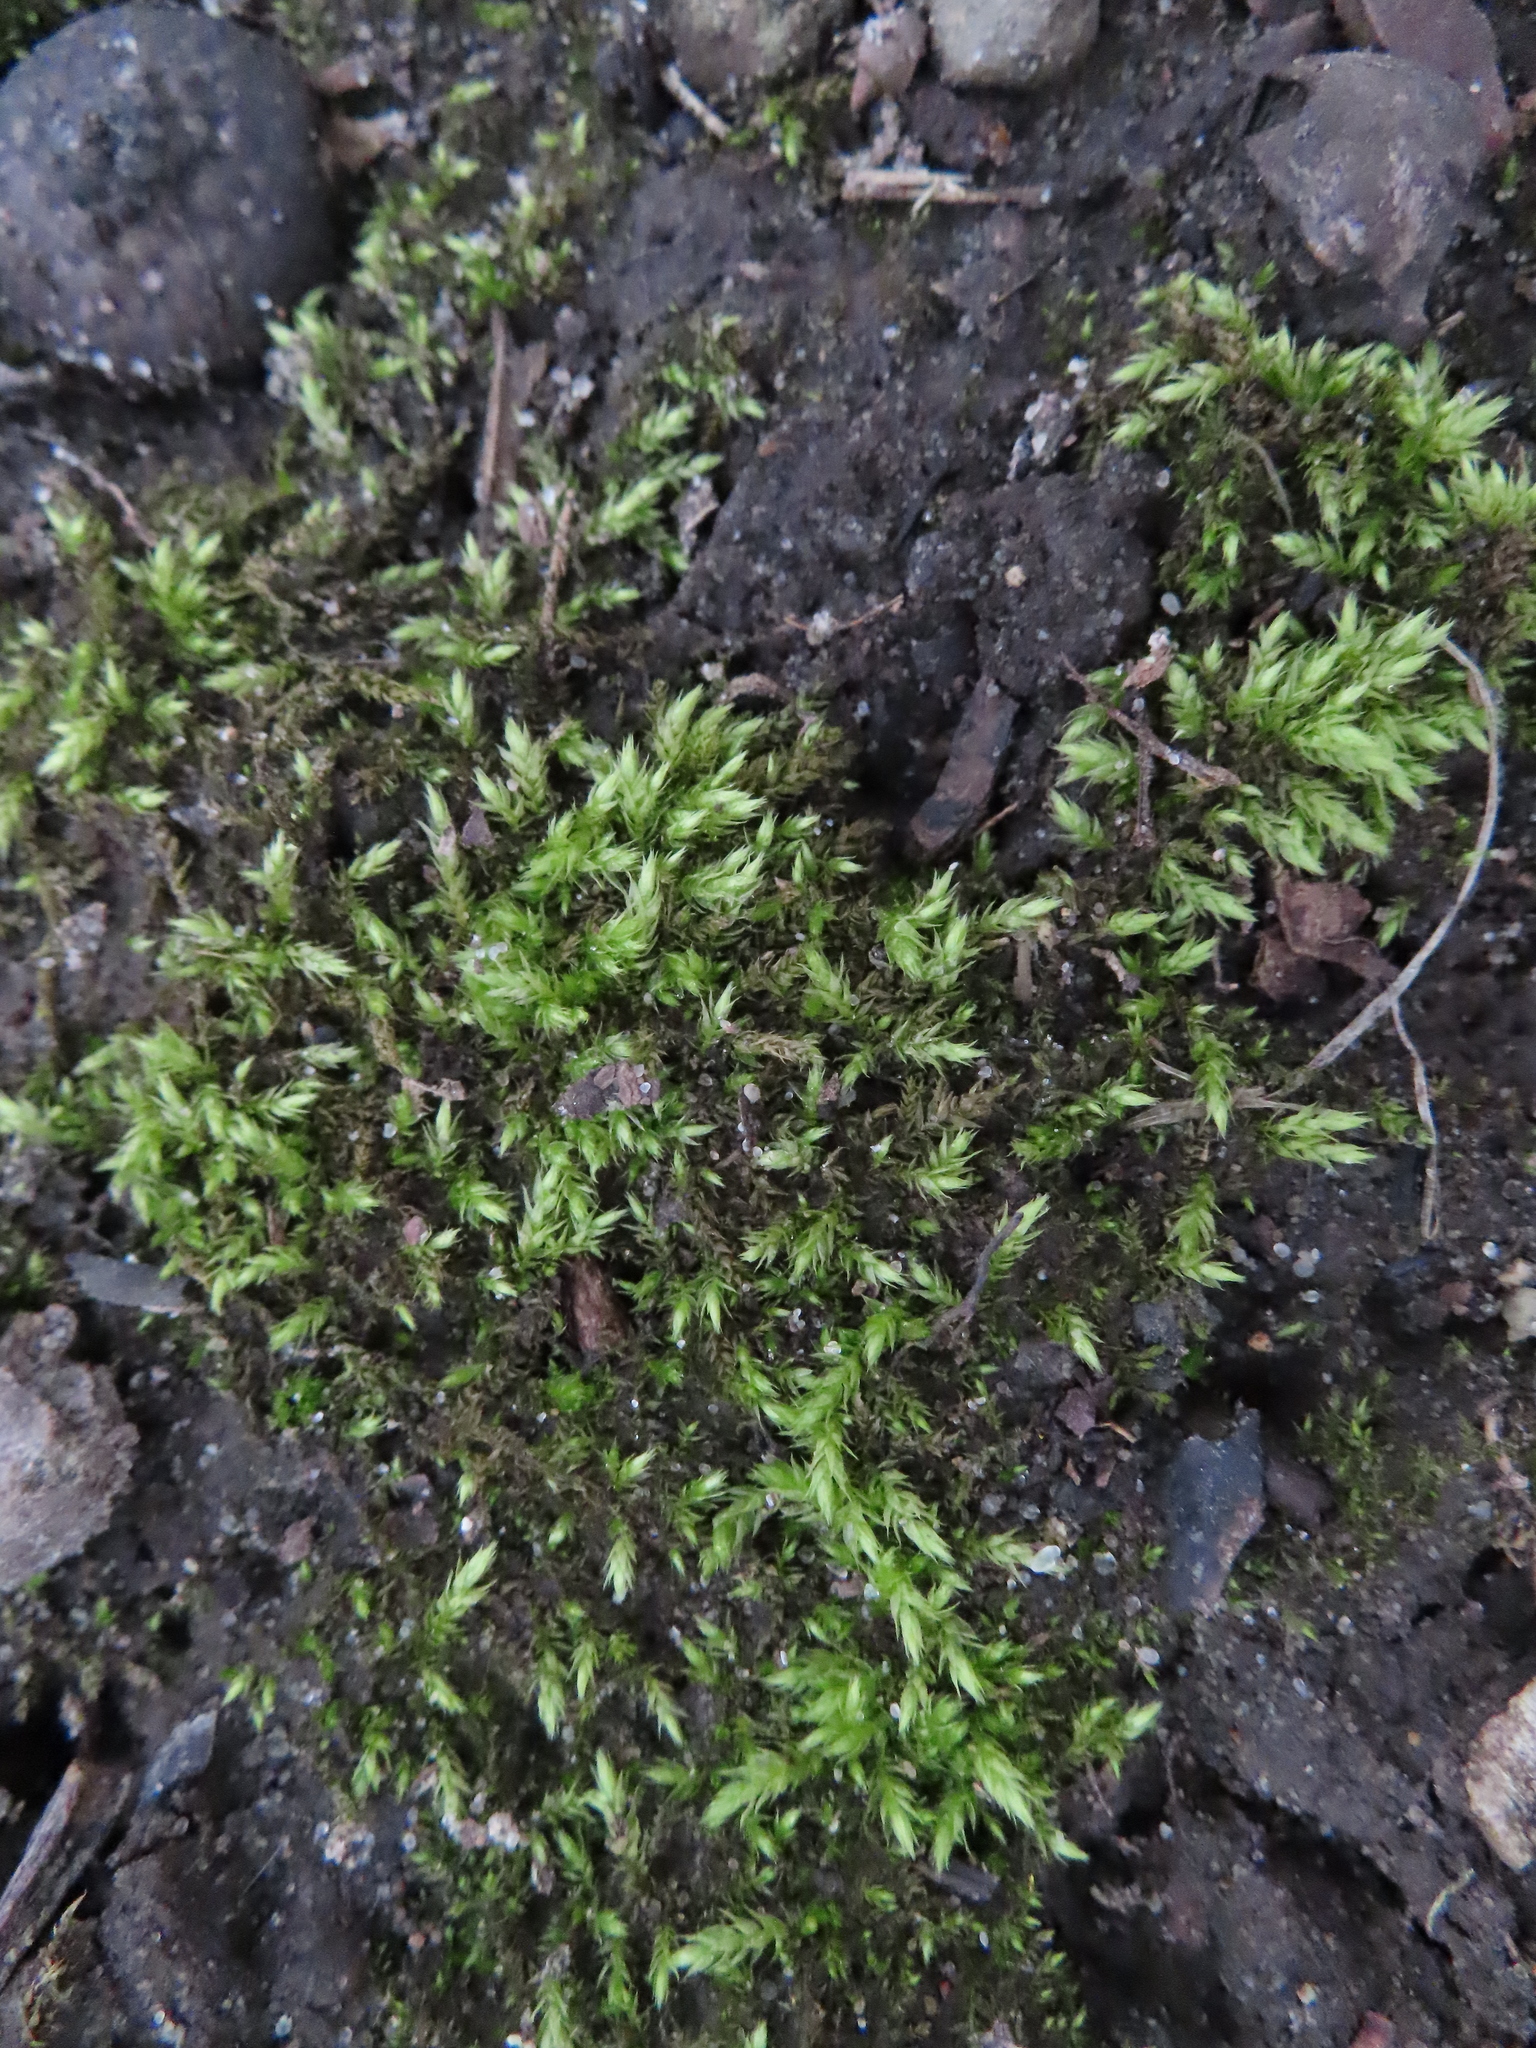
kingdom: Plantae
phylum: Bryophyta
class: Bryopsida
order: Hypnales
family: Entodontaceae
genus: Entodon
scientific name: Entodon seductrix
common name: Round-stemmed entodon moss
